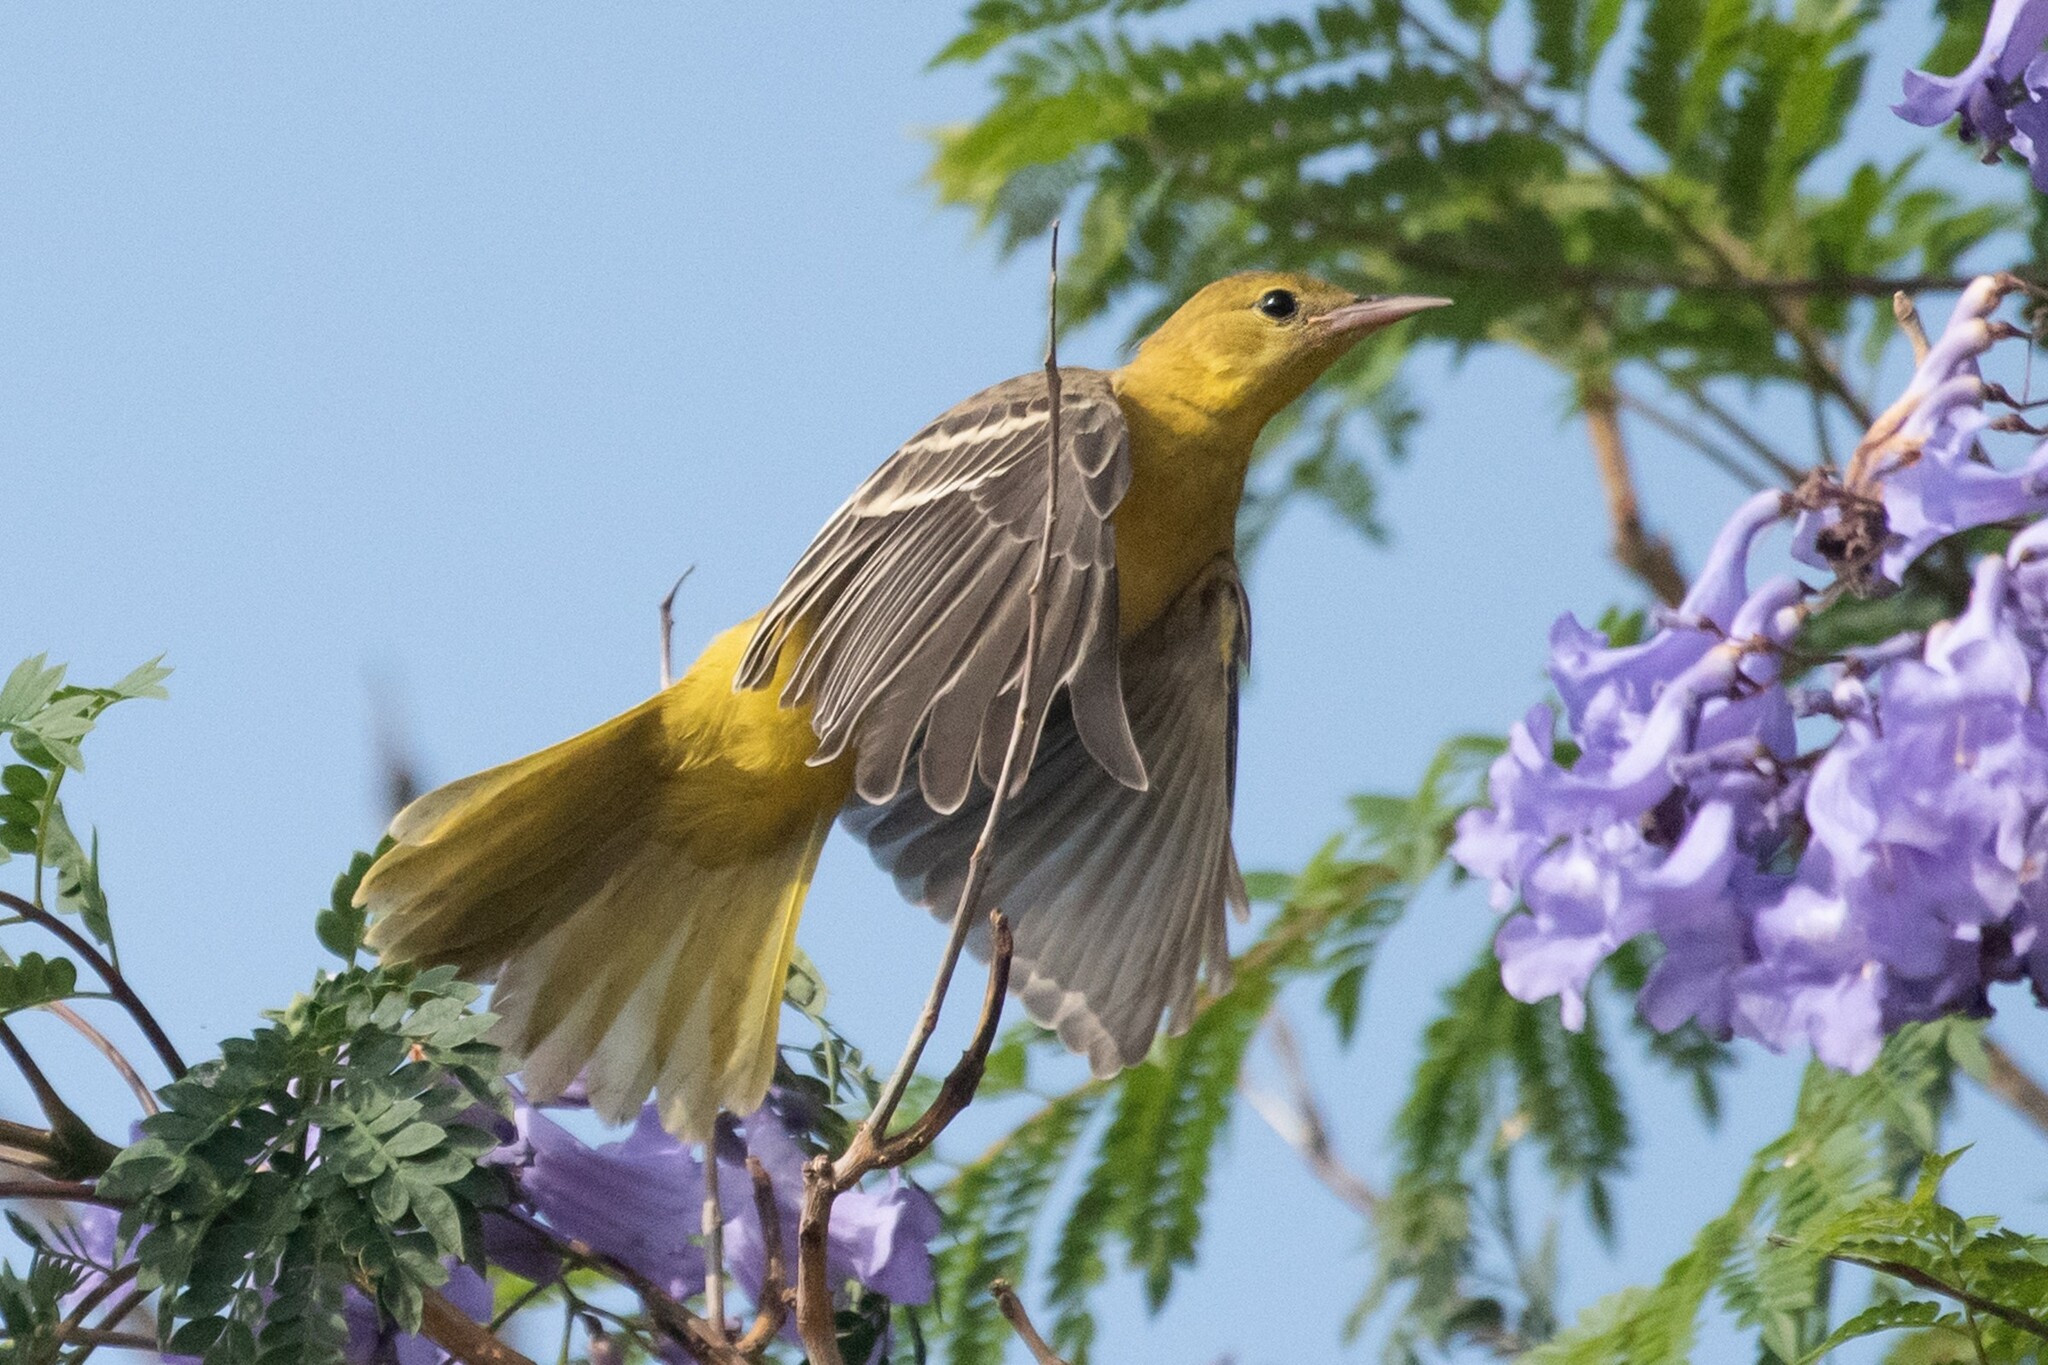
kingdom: Animalia
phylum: Chordata
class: Aves
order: Passeriformes
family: Icteridae
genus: Icterus
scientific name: Icterus cucullatus
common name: Hooded oriole
